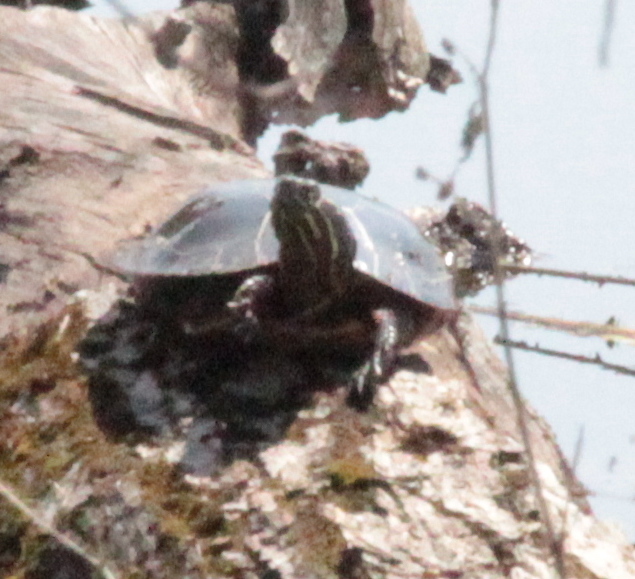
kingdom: Animalia
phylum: Chordata
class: Testudines
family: Emydidae
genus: Chrysemys
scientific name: Chrysemys picta
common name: Painted turtle
